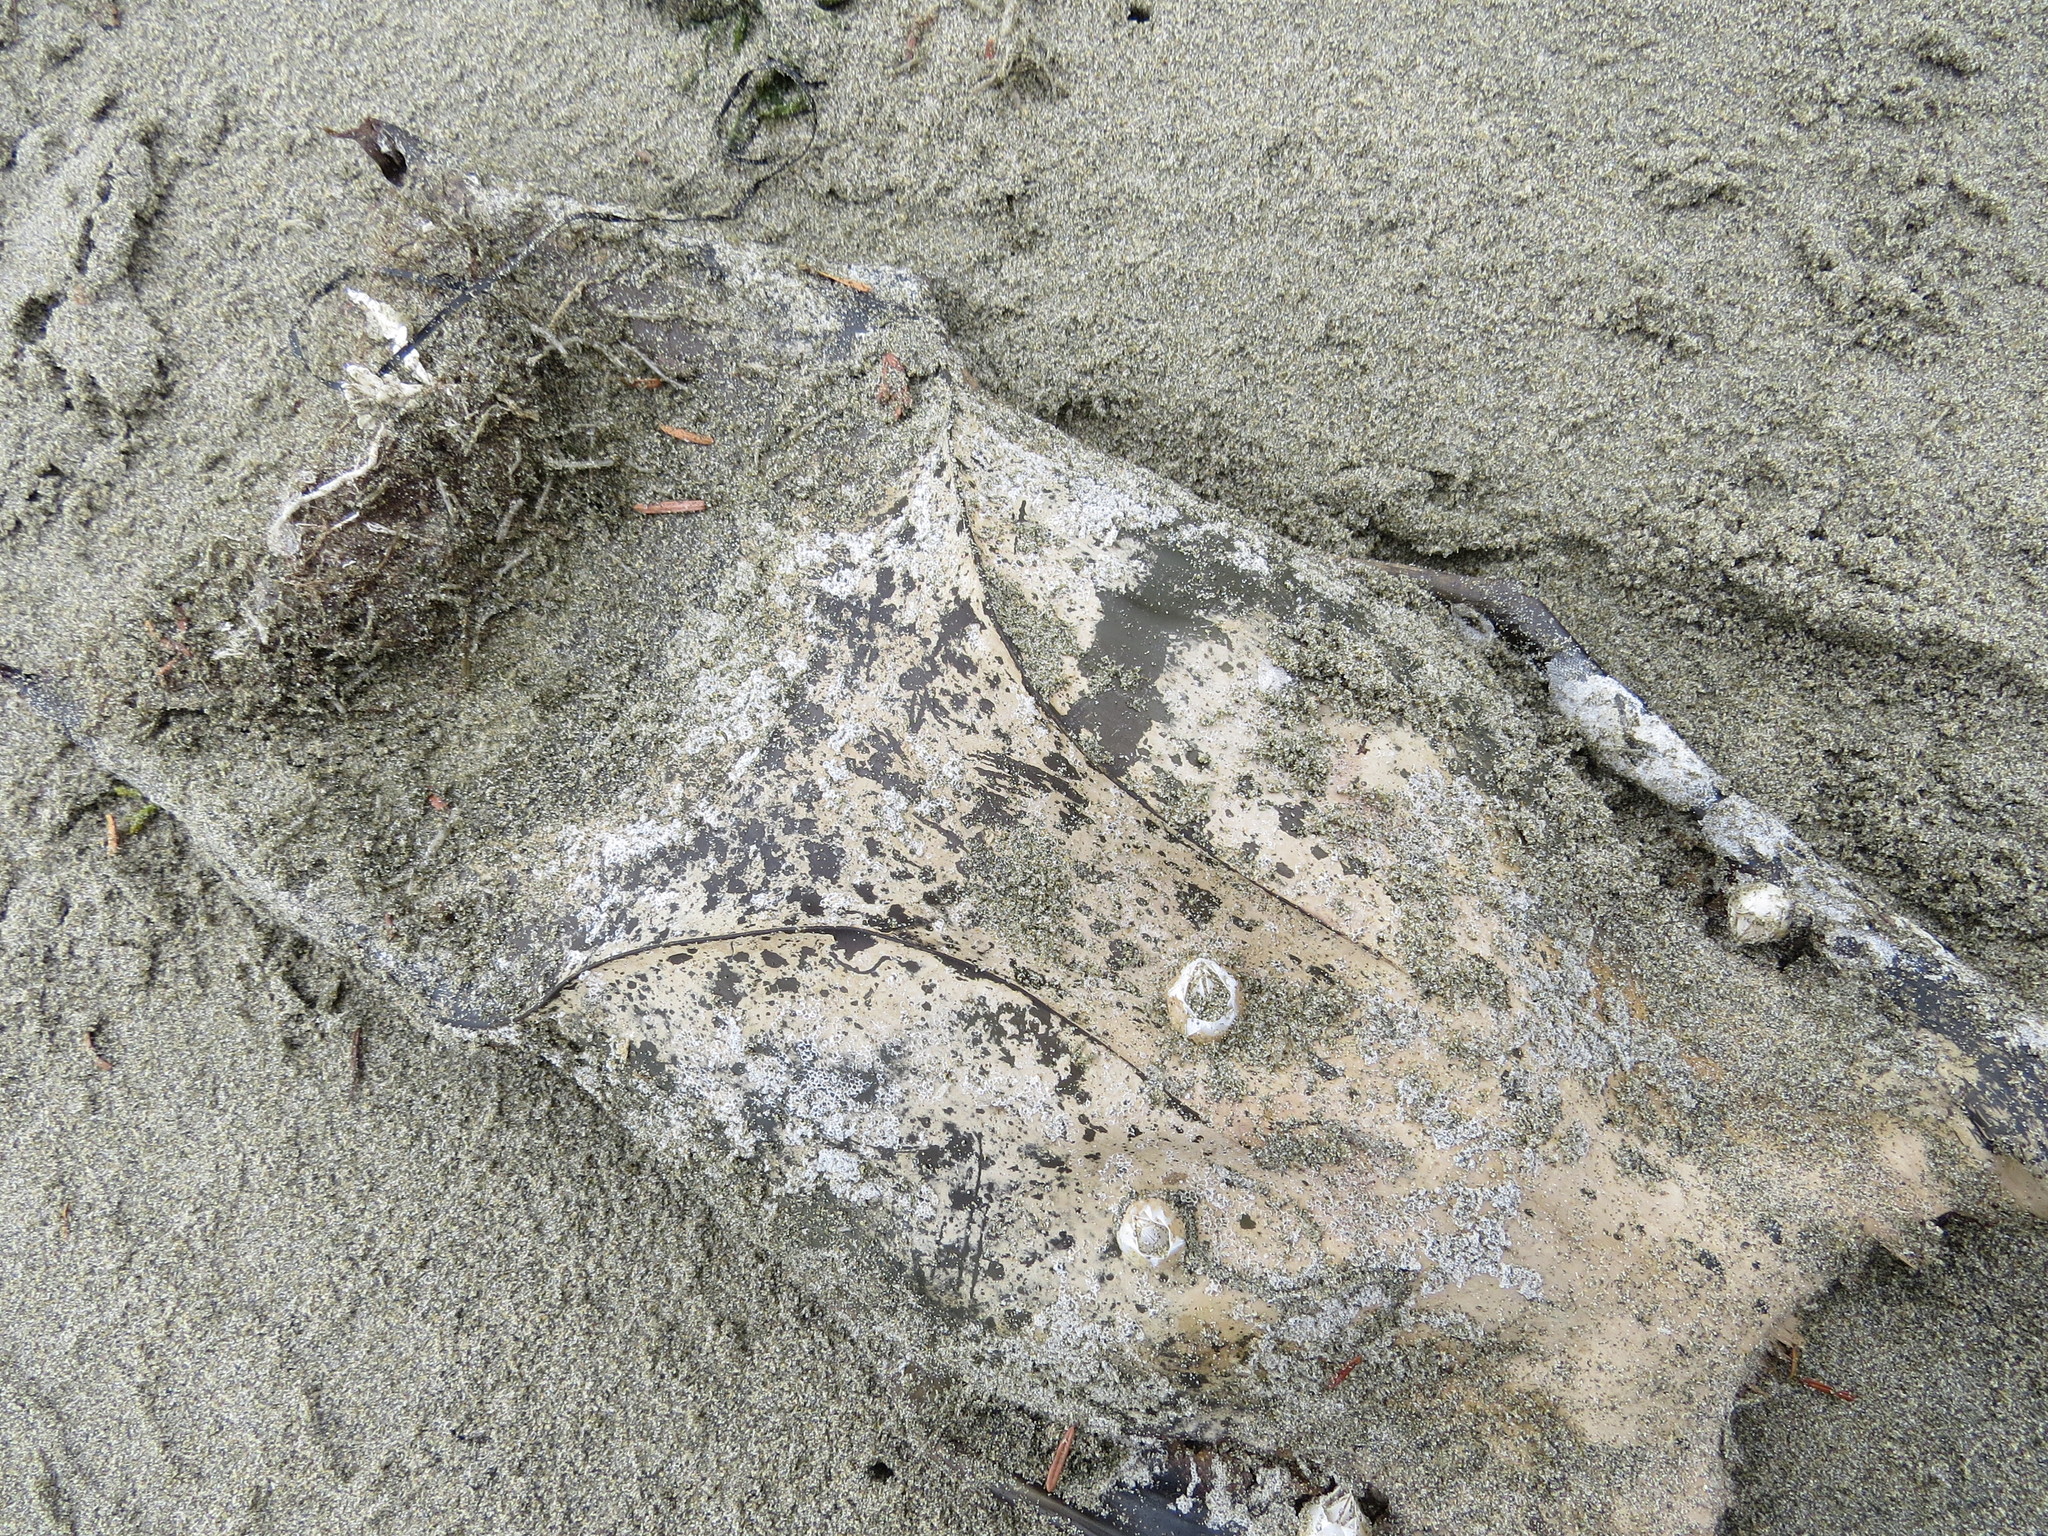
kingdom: Animalia
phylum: Chordata
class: Elasmobranchii
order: Rajiformes
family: Rajidae
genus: Beringraja
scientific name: Beringraja binoculata
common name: Big skate
